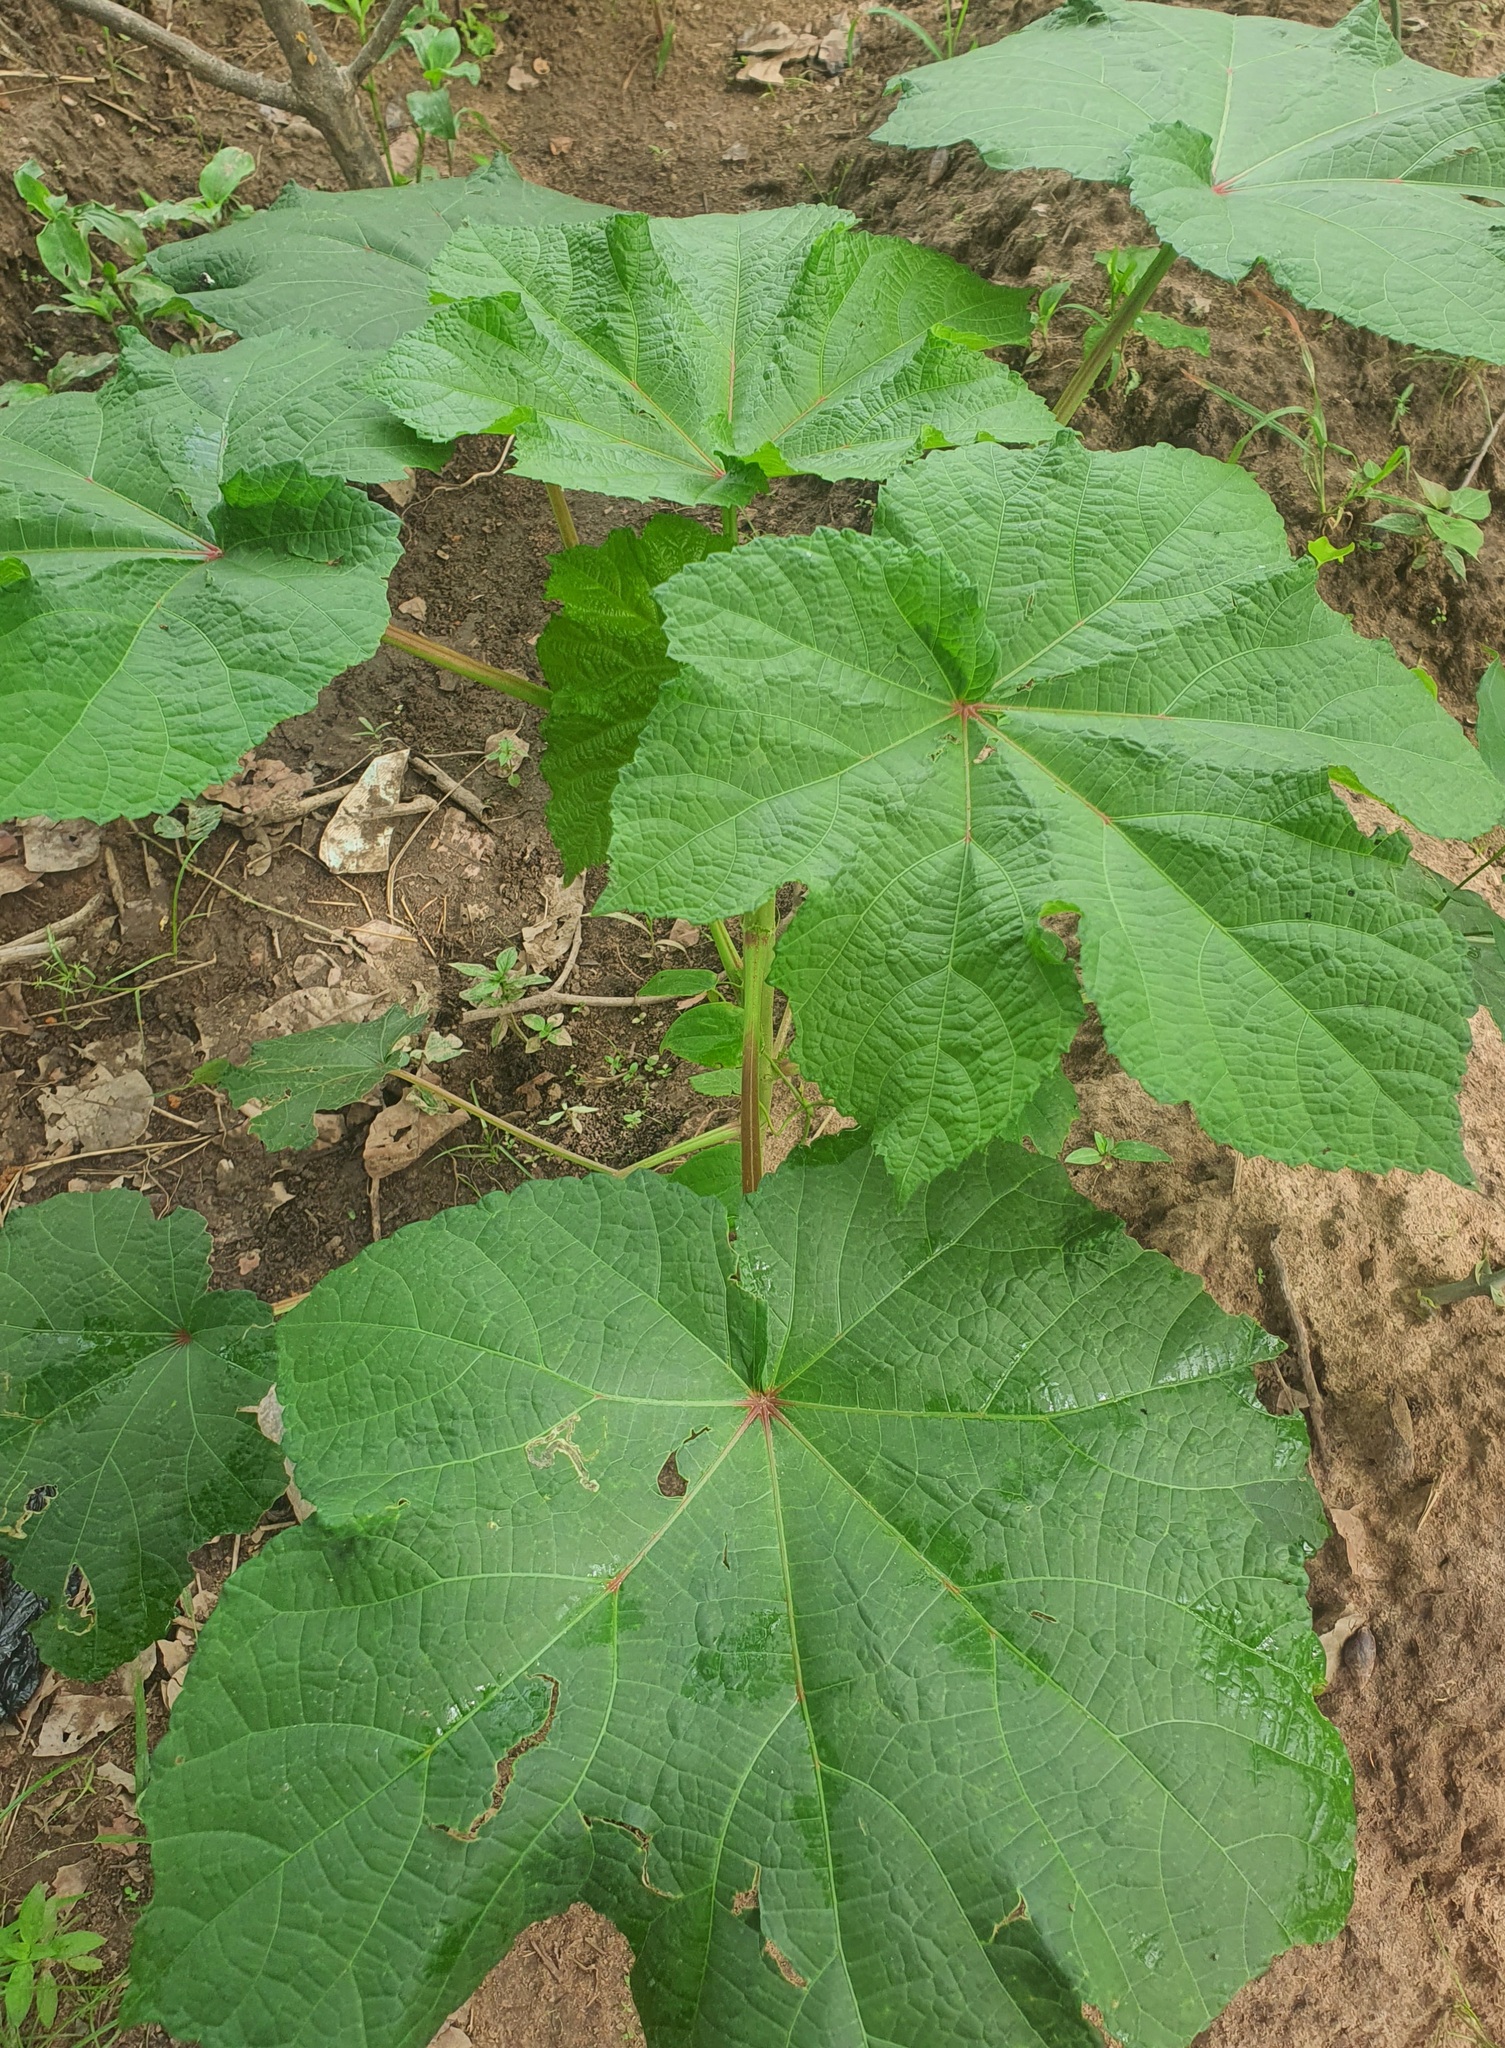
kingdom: Plantae
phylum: Tracheophyta
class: Magnoliopsida
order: Malvales
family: Malvaceae
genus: Abelmoschus
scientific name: Abelmoschus esculentus
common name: Okra
